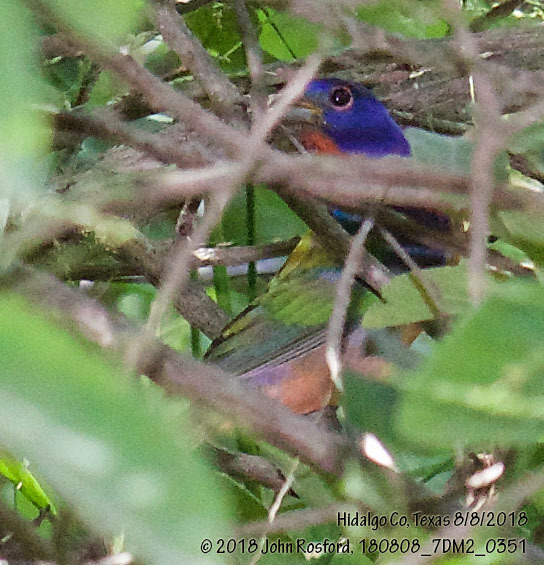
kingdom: Animalia
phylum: Chordata
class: Aves
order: Passeriformes
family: Cardinalidae
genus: Passerina
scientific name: Passerina ciris
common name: Painted bunting
